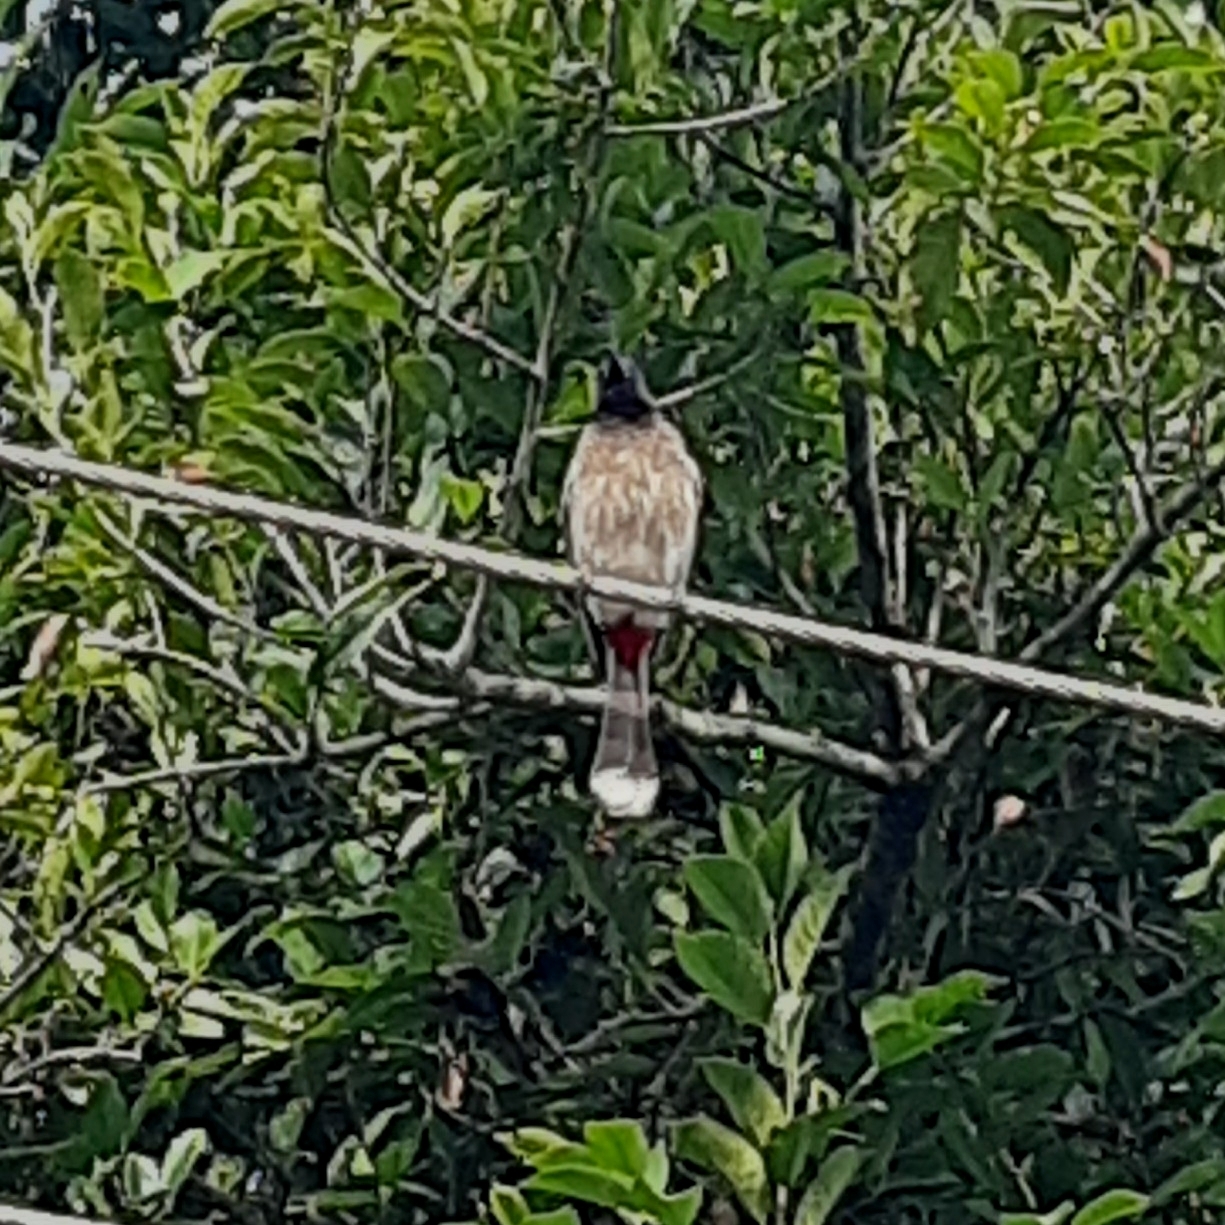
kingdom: Animalia
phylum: Chordata
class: Aves
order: Passeriformes
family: Pycnonotidae
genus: Pycnonotus
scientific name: Pycnonotus cafer
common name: Red-vented bulbul
